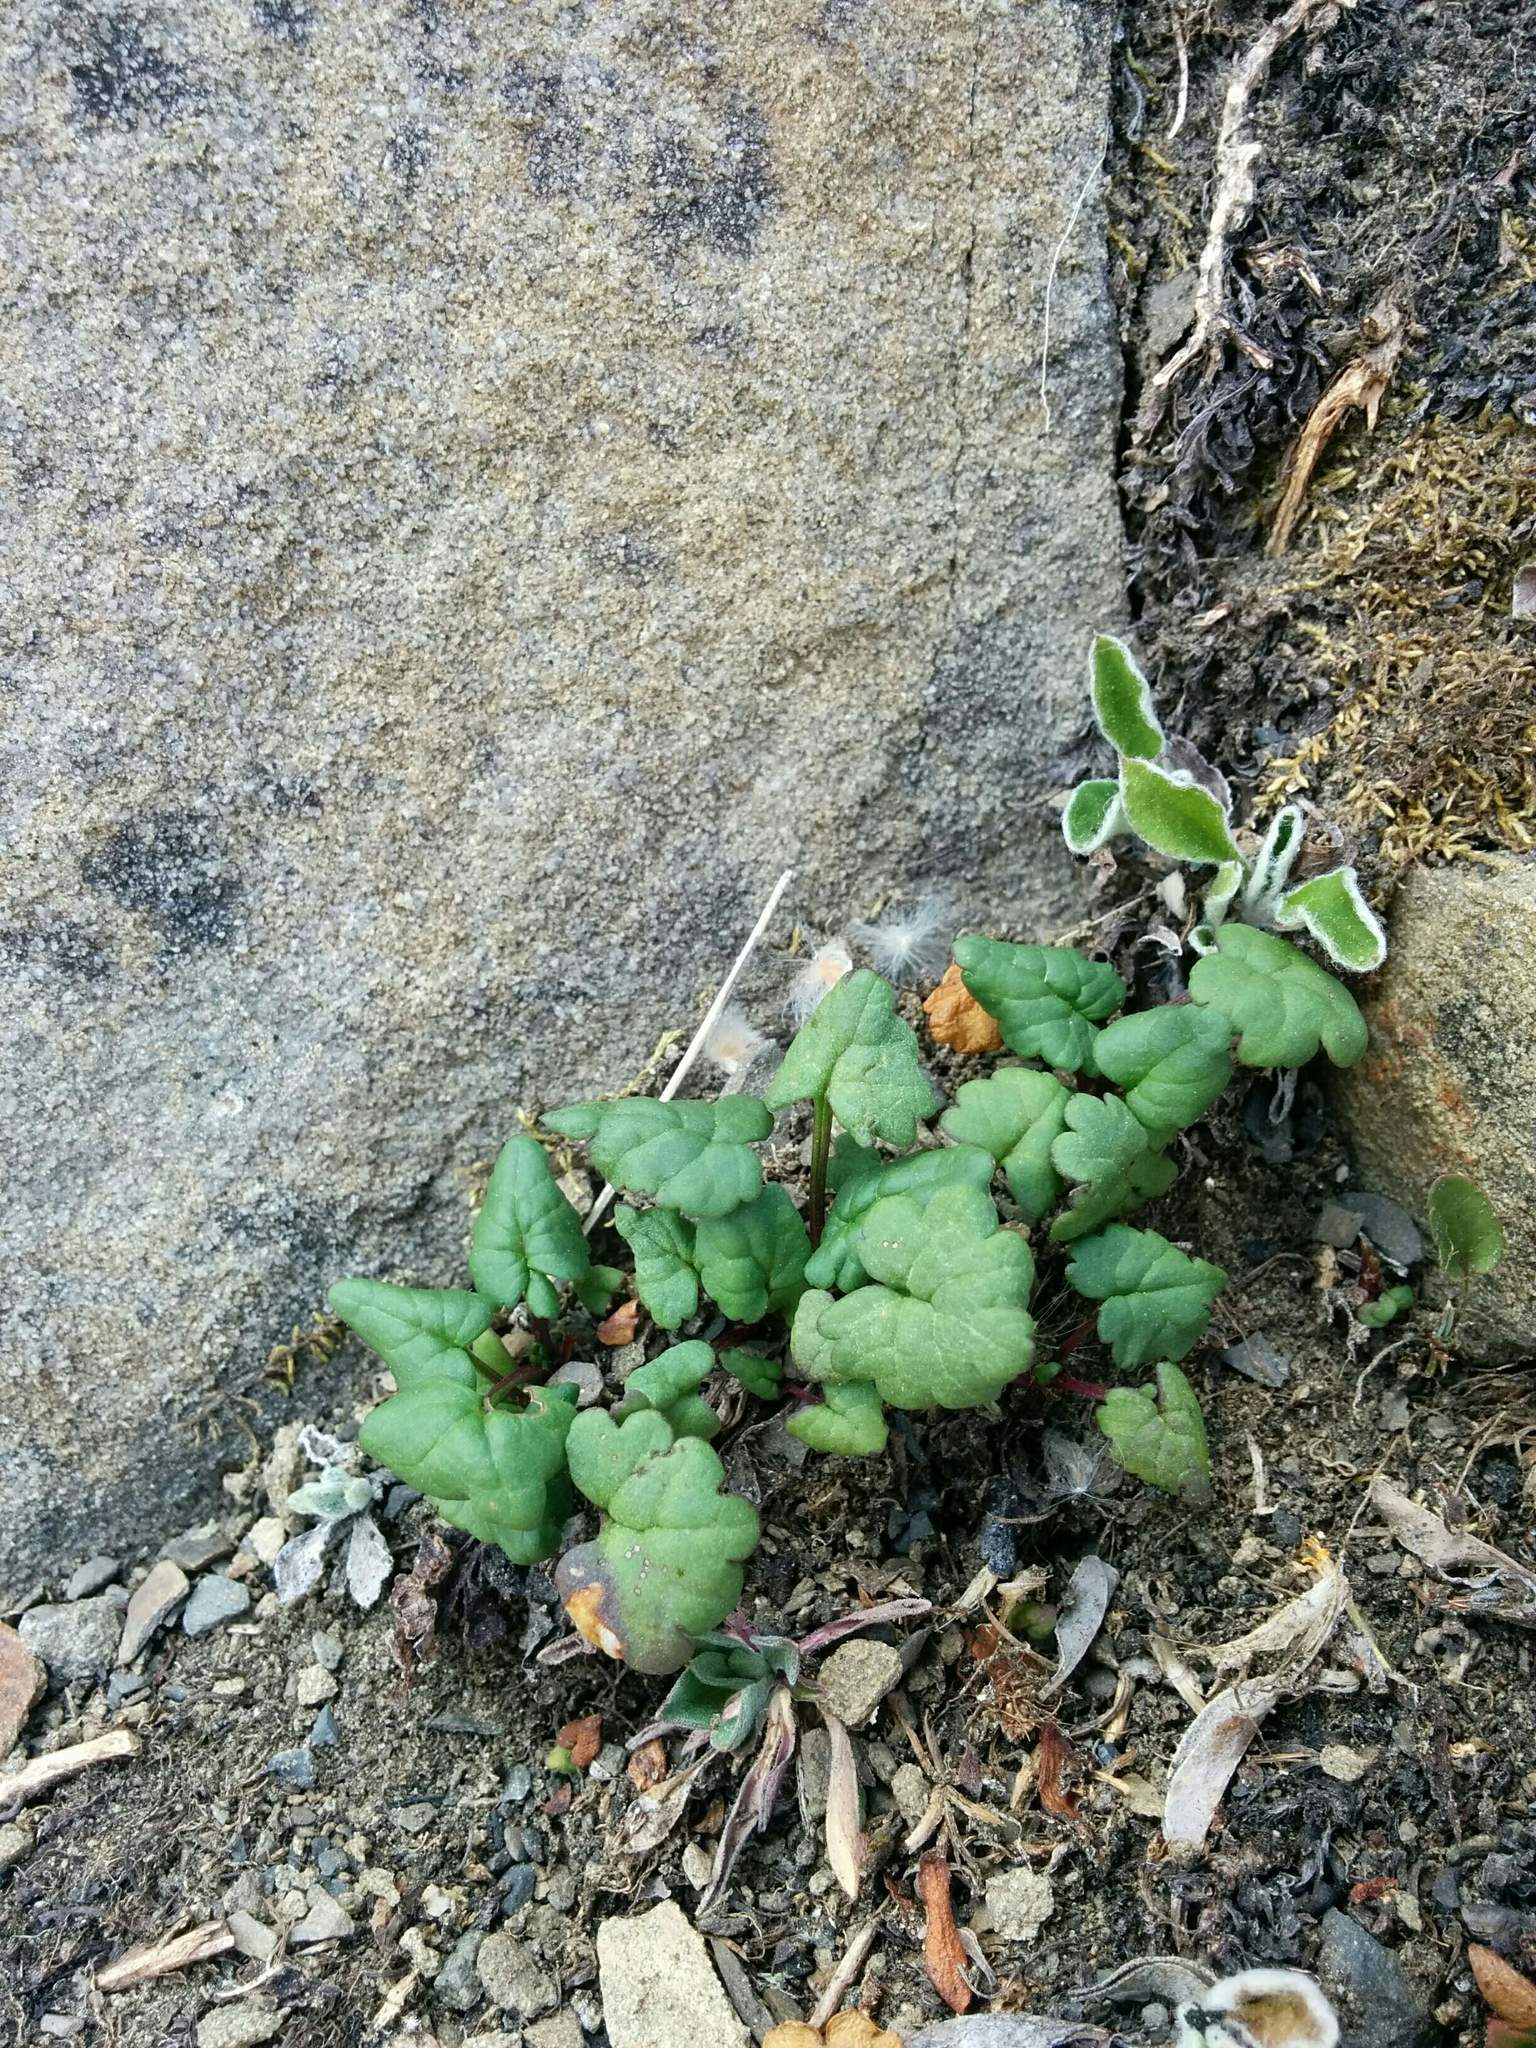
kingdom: Plantae
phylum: Tracheophyta
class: Magnoliopsida
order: Asterales
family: Asteraceae
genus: Packera
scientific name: Packera flettii
